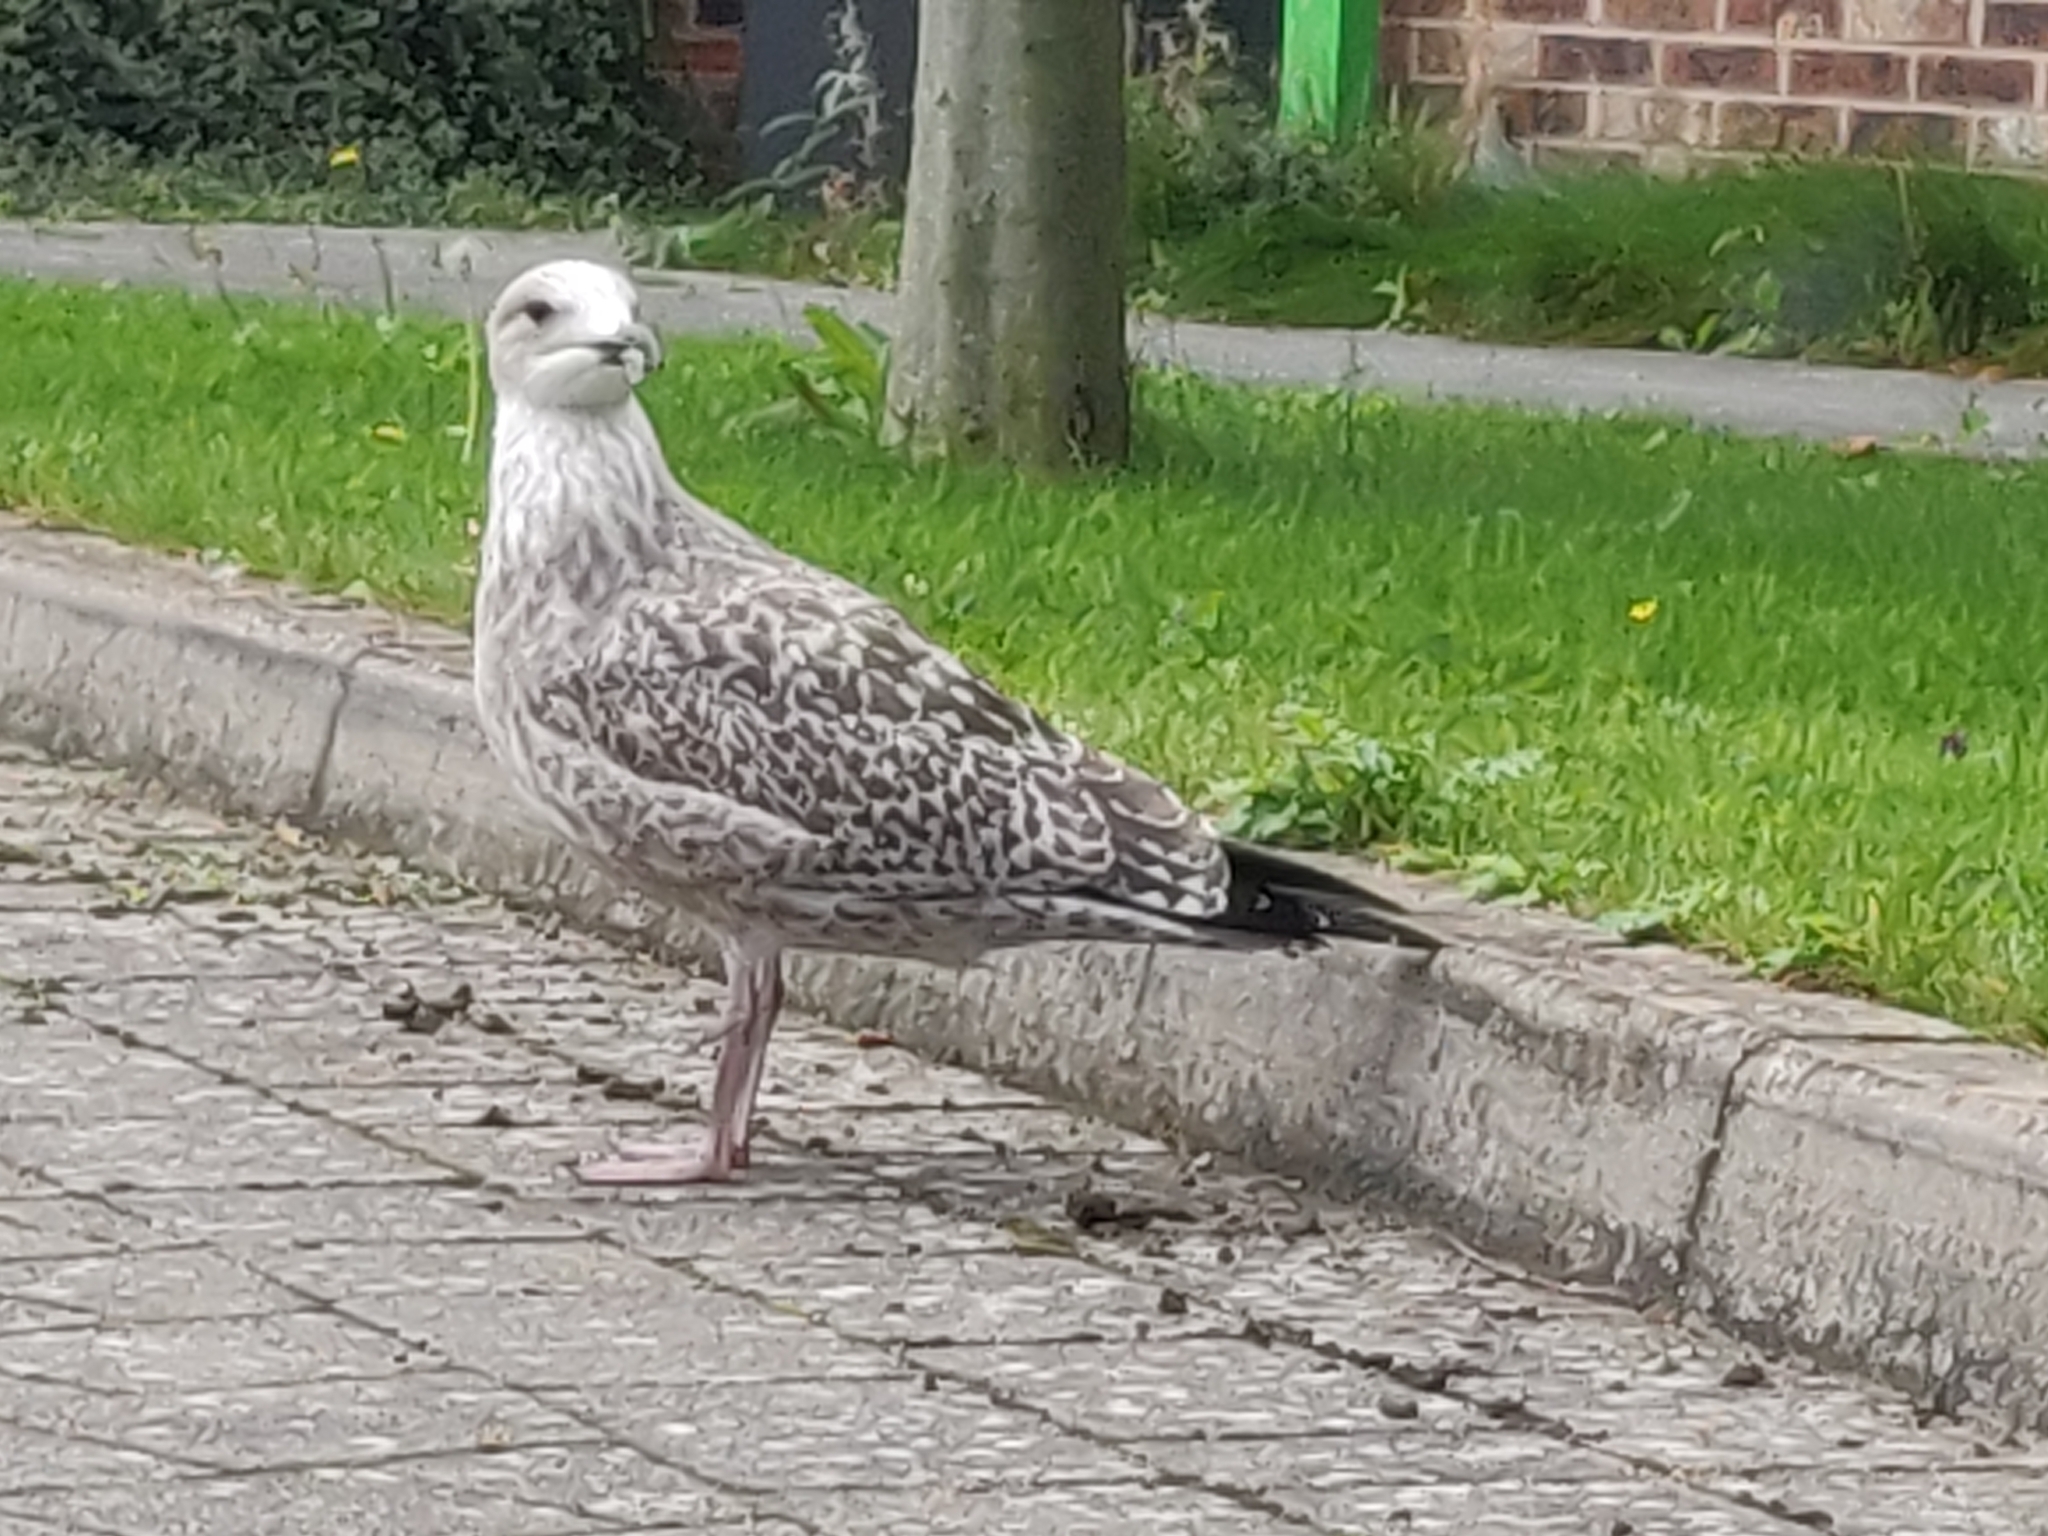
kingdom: Animalia
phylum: Chordata
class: Aves
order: Charadriiformes
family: Laridae
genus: Larus
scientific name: Larus argentatus
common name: Herring gull
